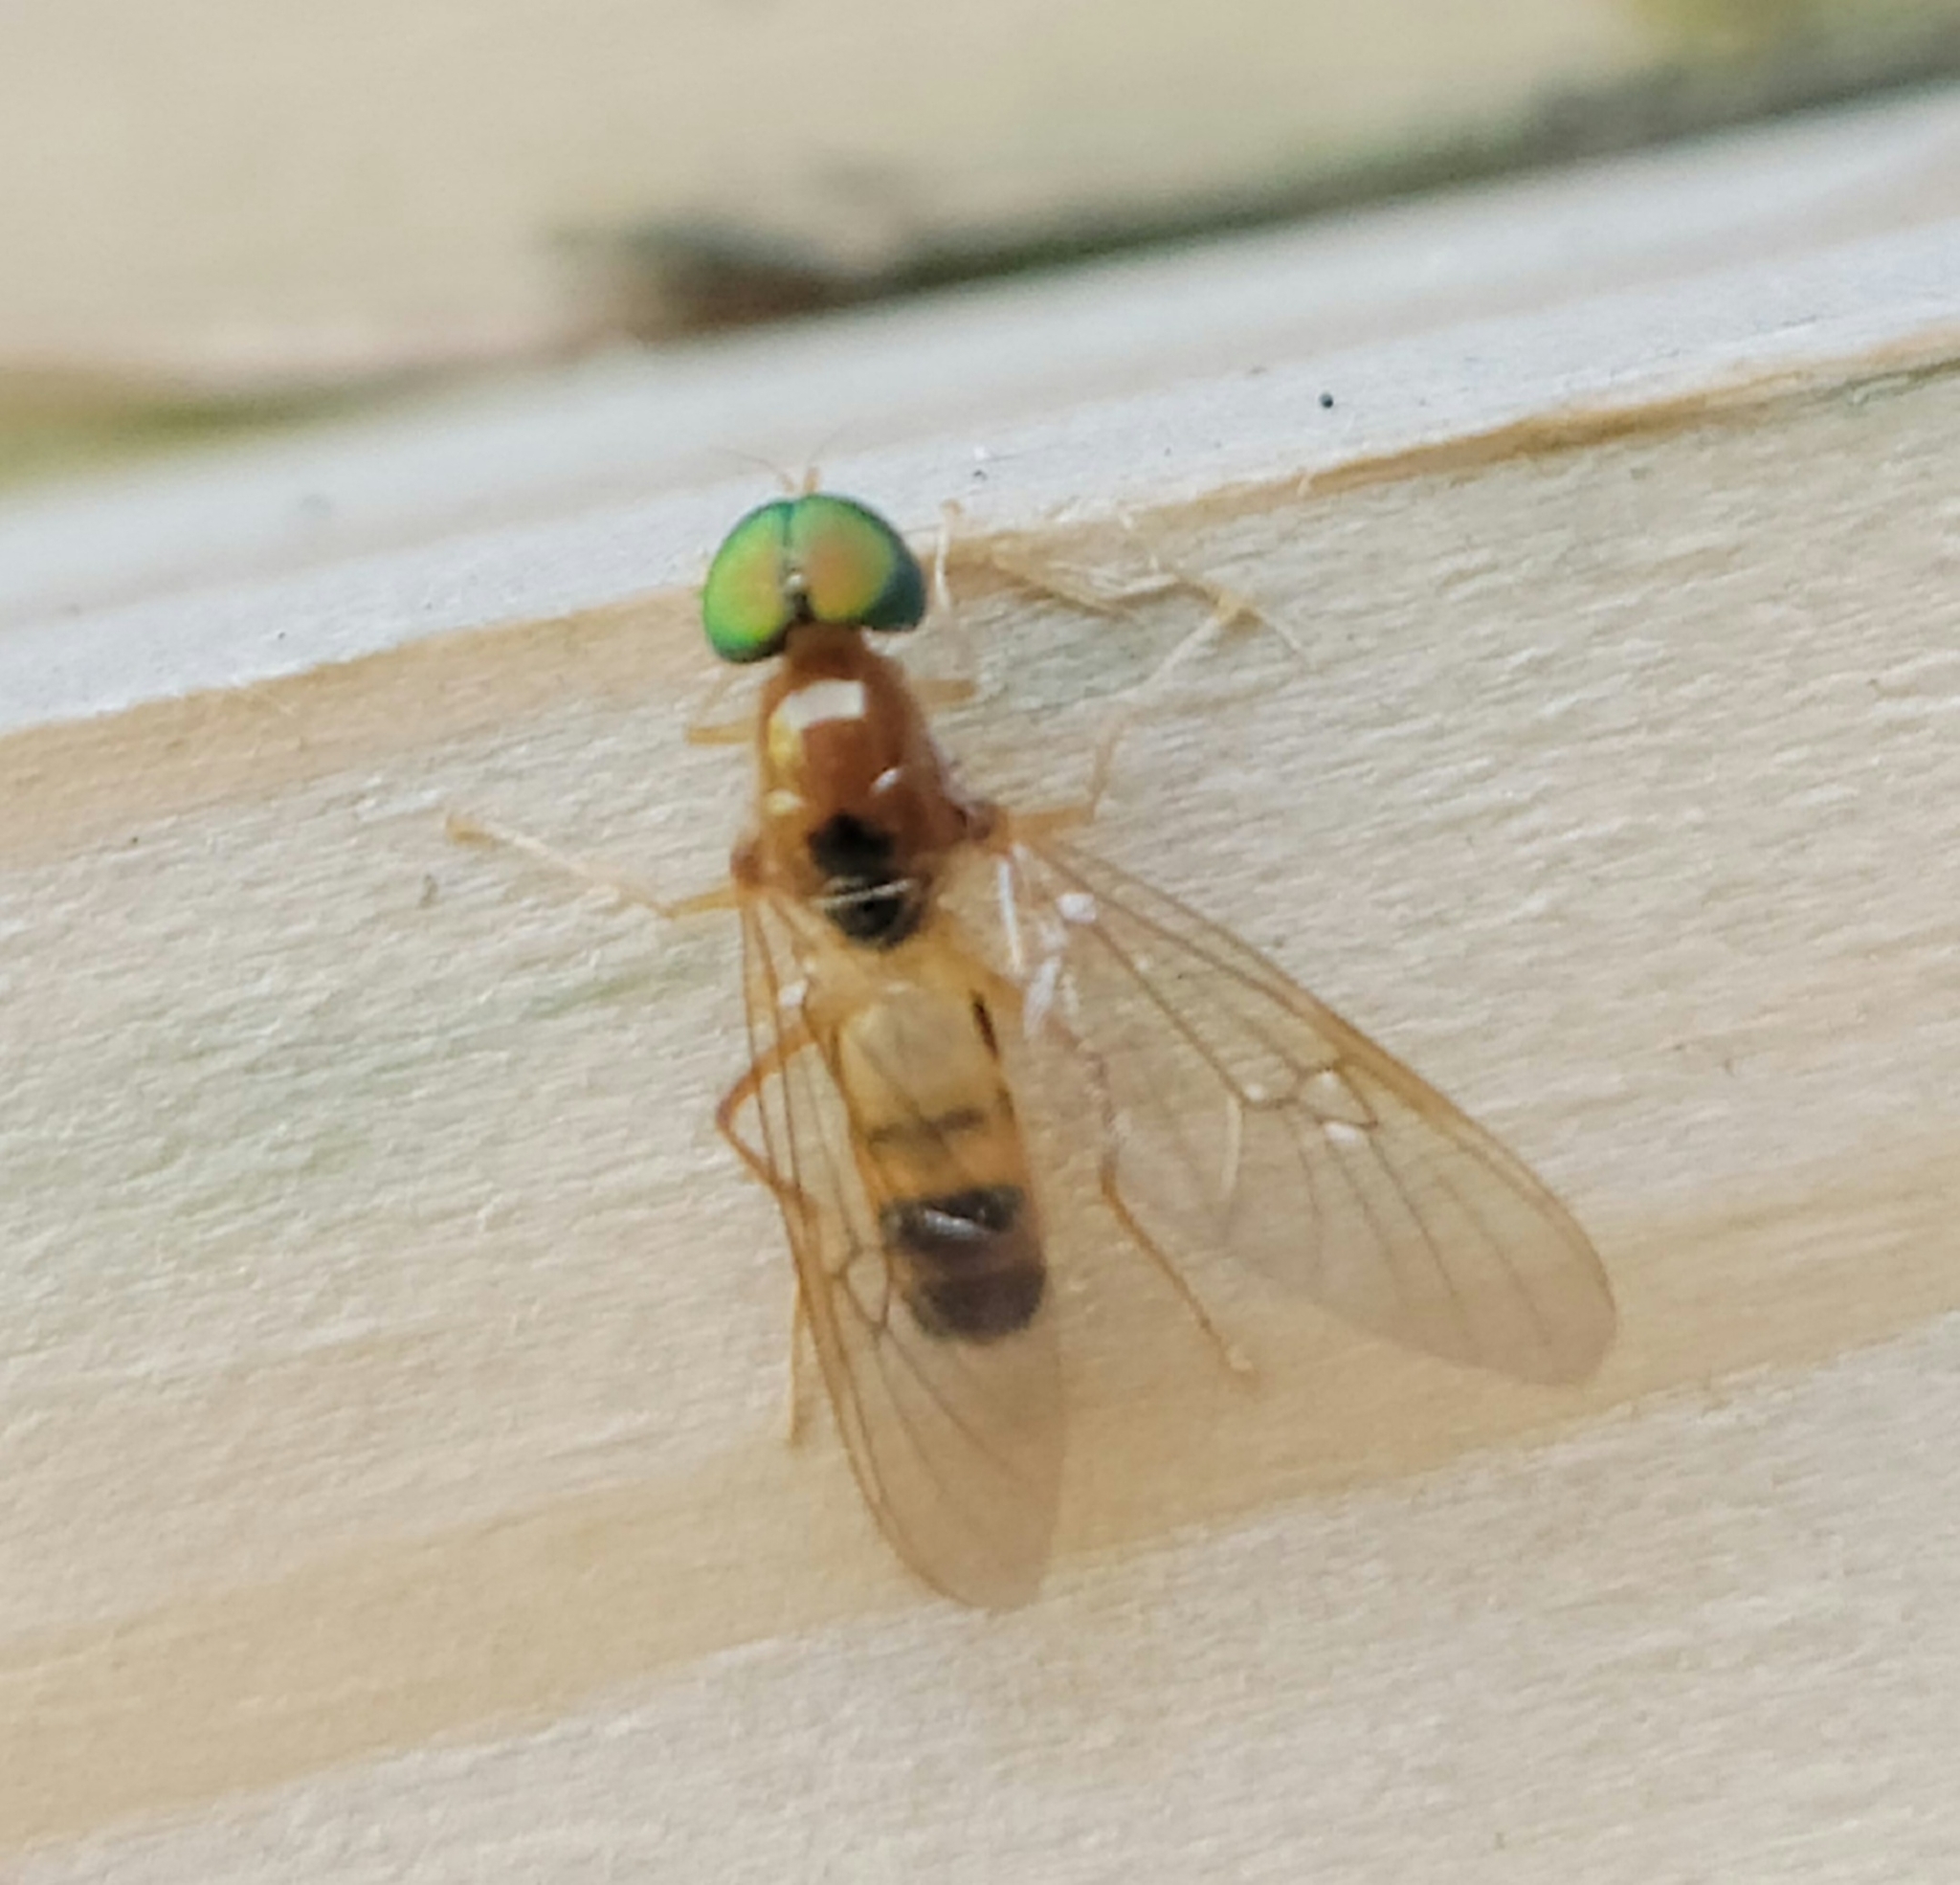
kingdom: Animalia
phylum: Arthropoda
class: Insecta
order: Diptera
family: Stratiomyidae
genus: Sargus
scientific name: Sargus elegans
